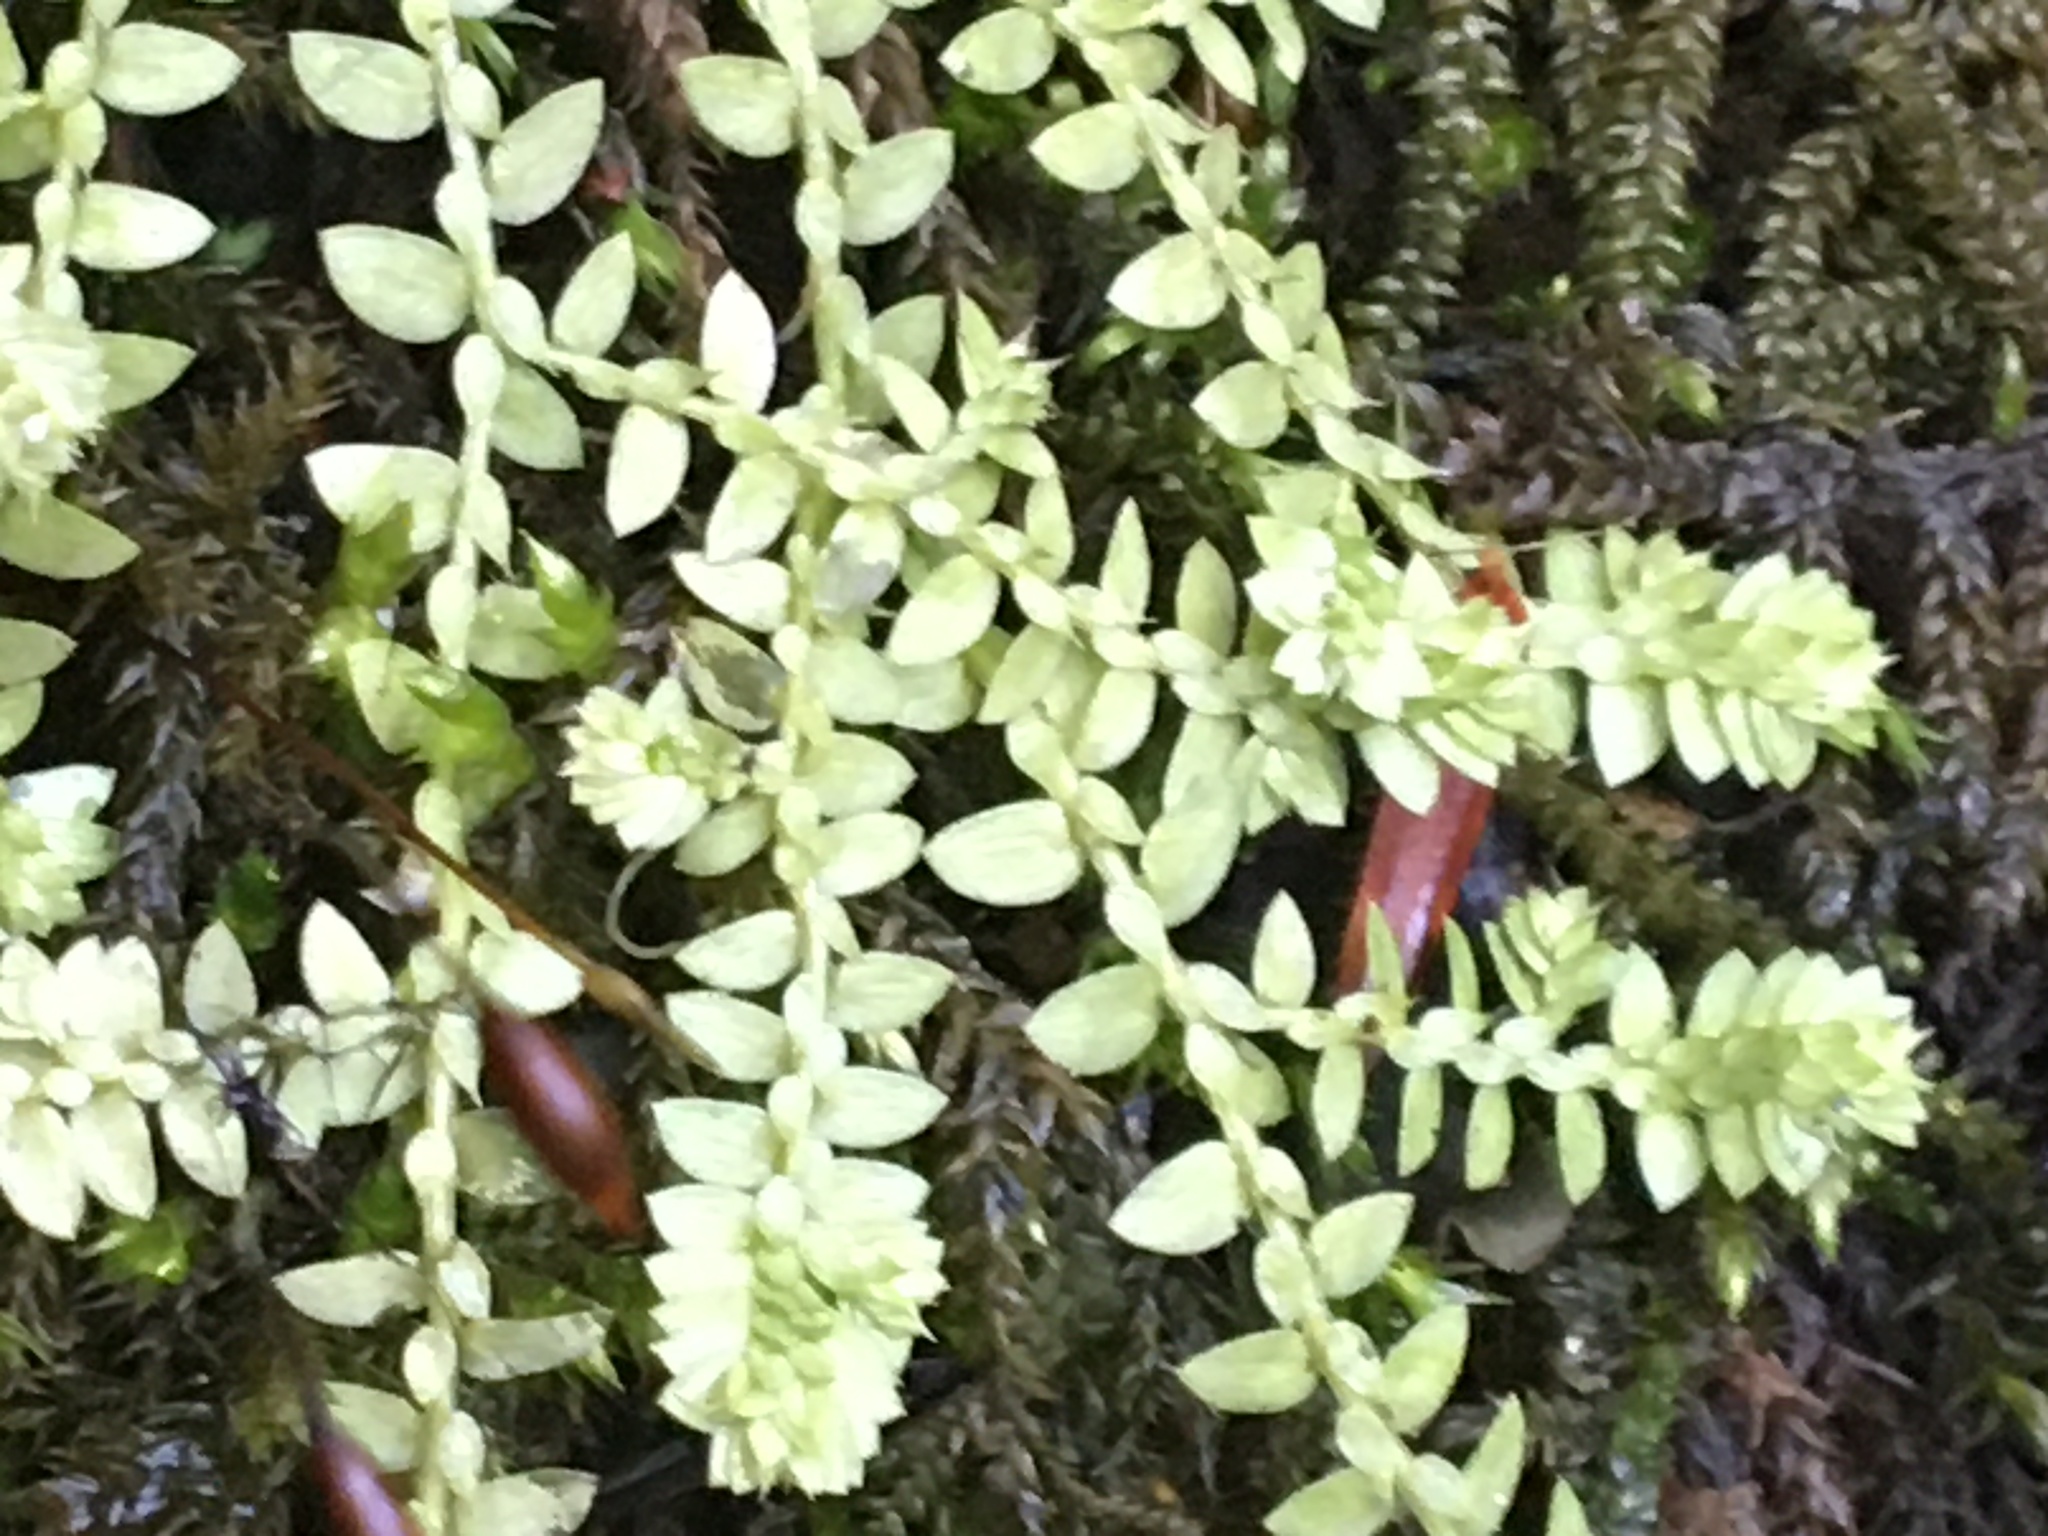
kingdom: Plantae
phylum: Tracheophyta
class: Lycopodiopsida
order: Selaginellales
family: Selaginellaceae
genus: Selaginella
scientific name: Selaginella apoda
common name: Creeping spikemoss
